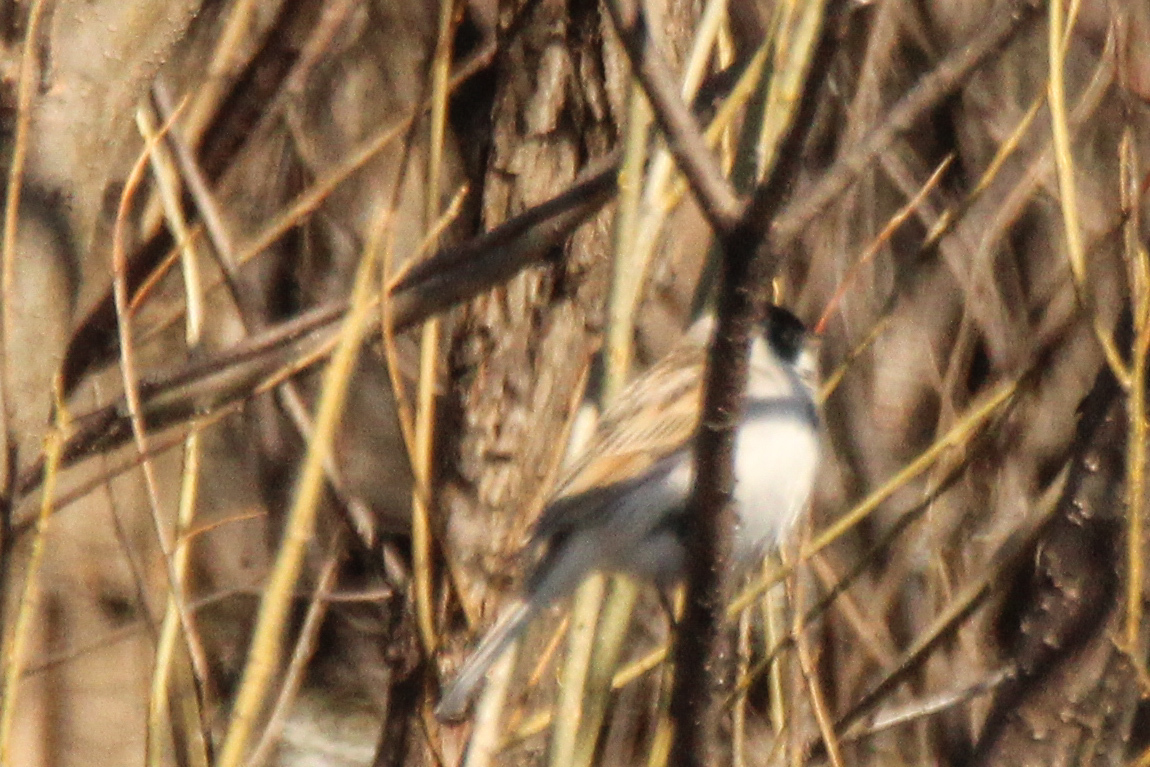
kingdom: Animalia
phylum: Chordata
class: Aves
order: Passeriformes
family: Emberizidae
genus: Emberiza
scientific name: Emberiza pallasi
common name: Pallas's reed bunting
